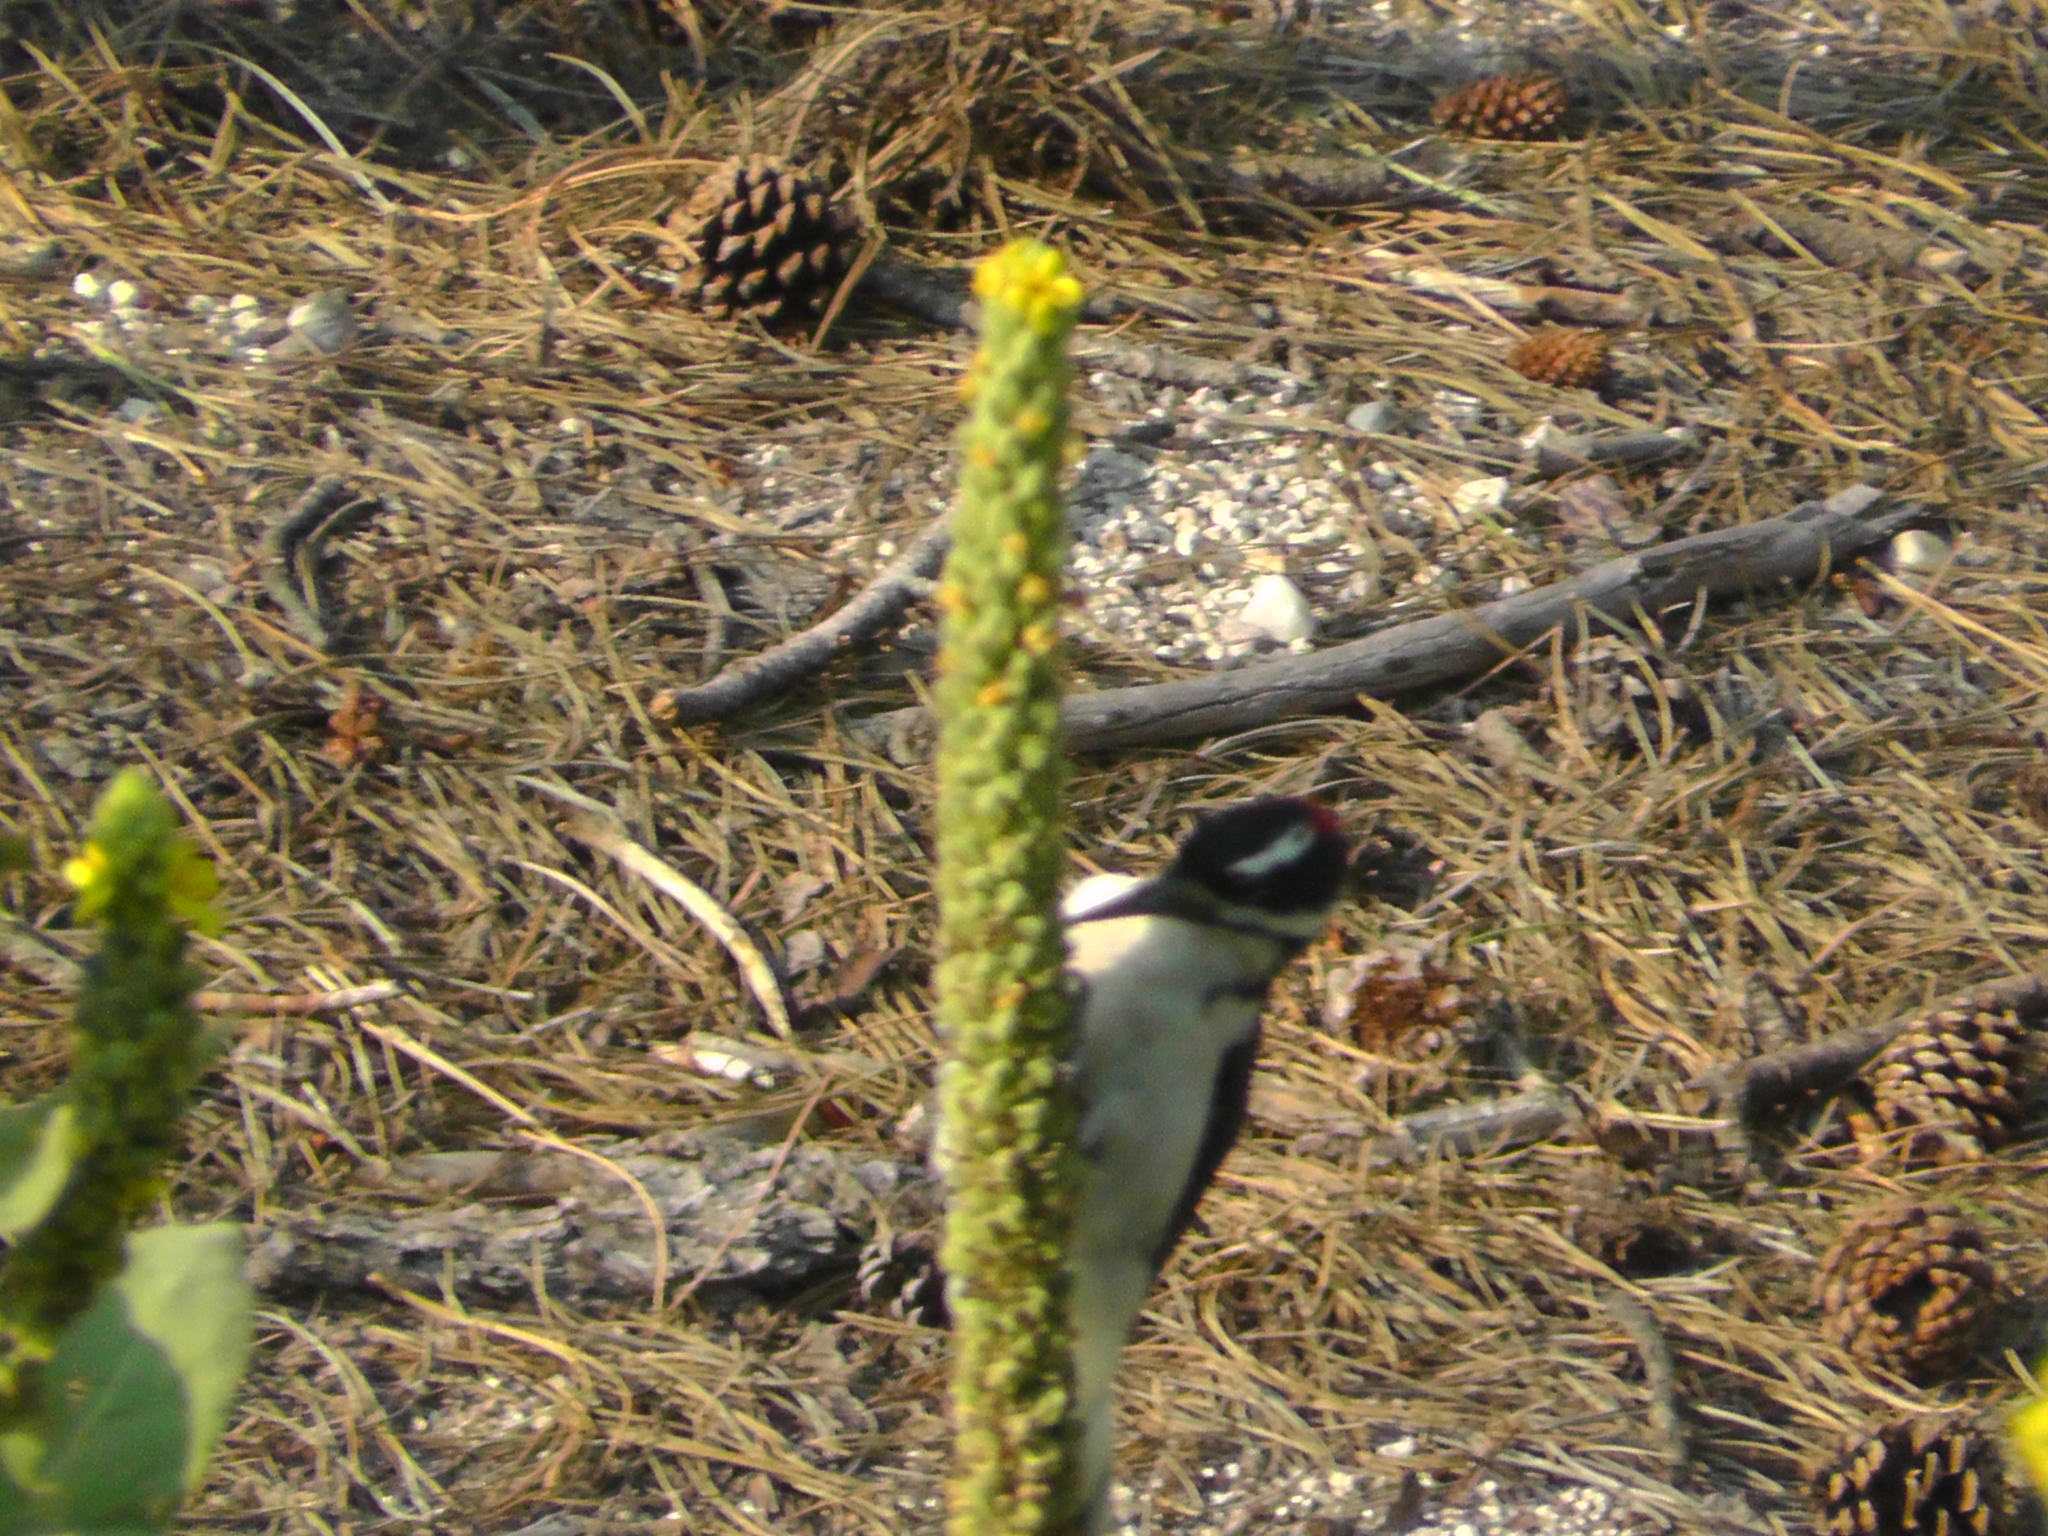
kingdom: Animalia
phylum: Chordata
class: Aves
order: Piciformes
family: Picidae
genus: Leuconotopicus
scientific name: Leuconotopicus villosus
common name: Hairy woodpecker
